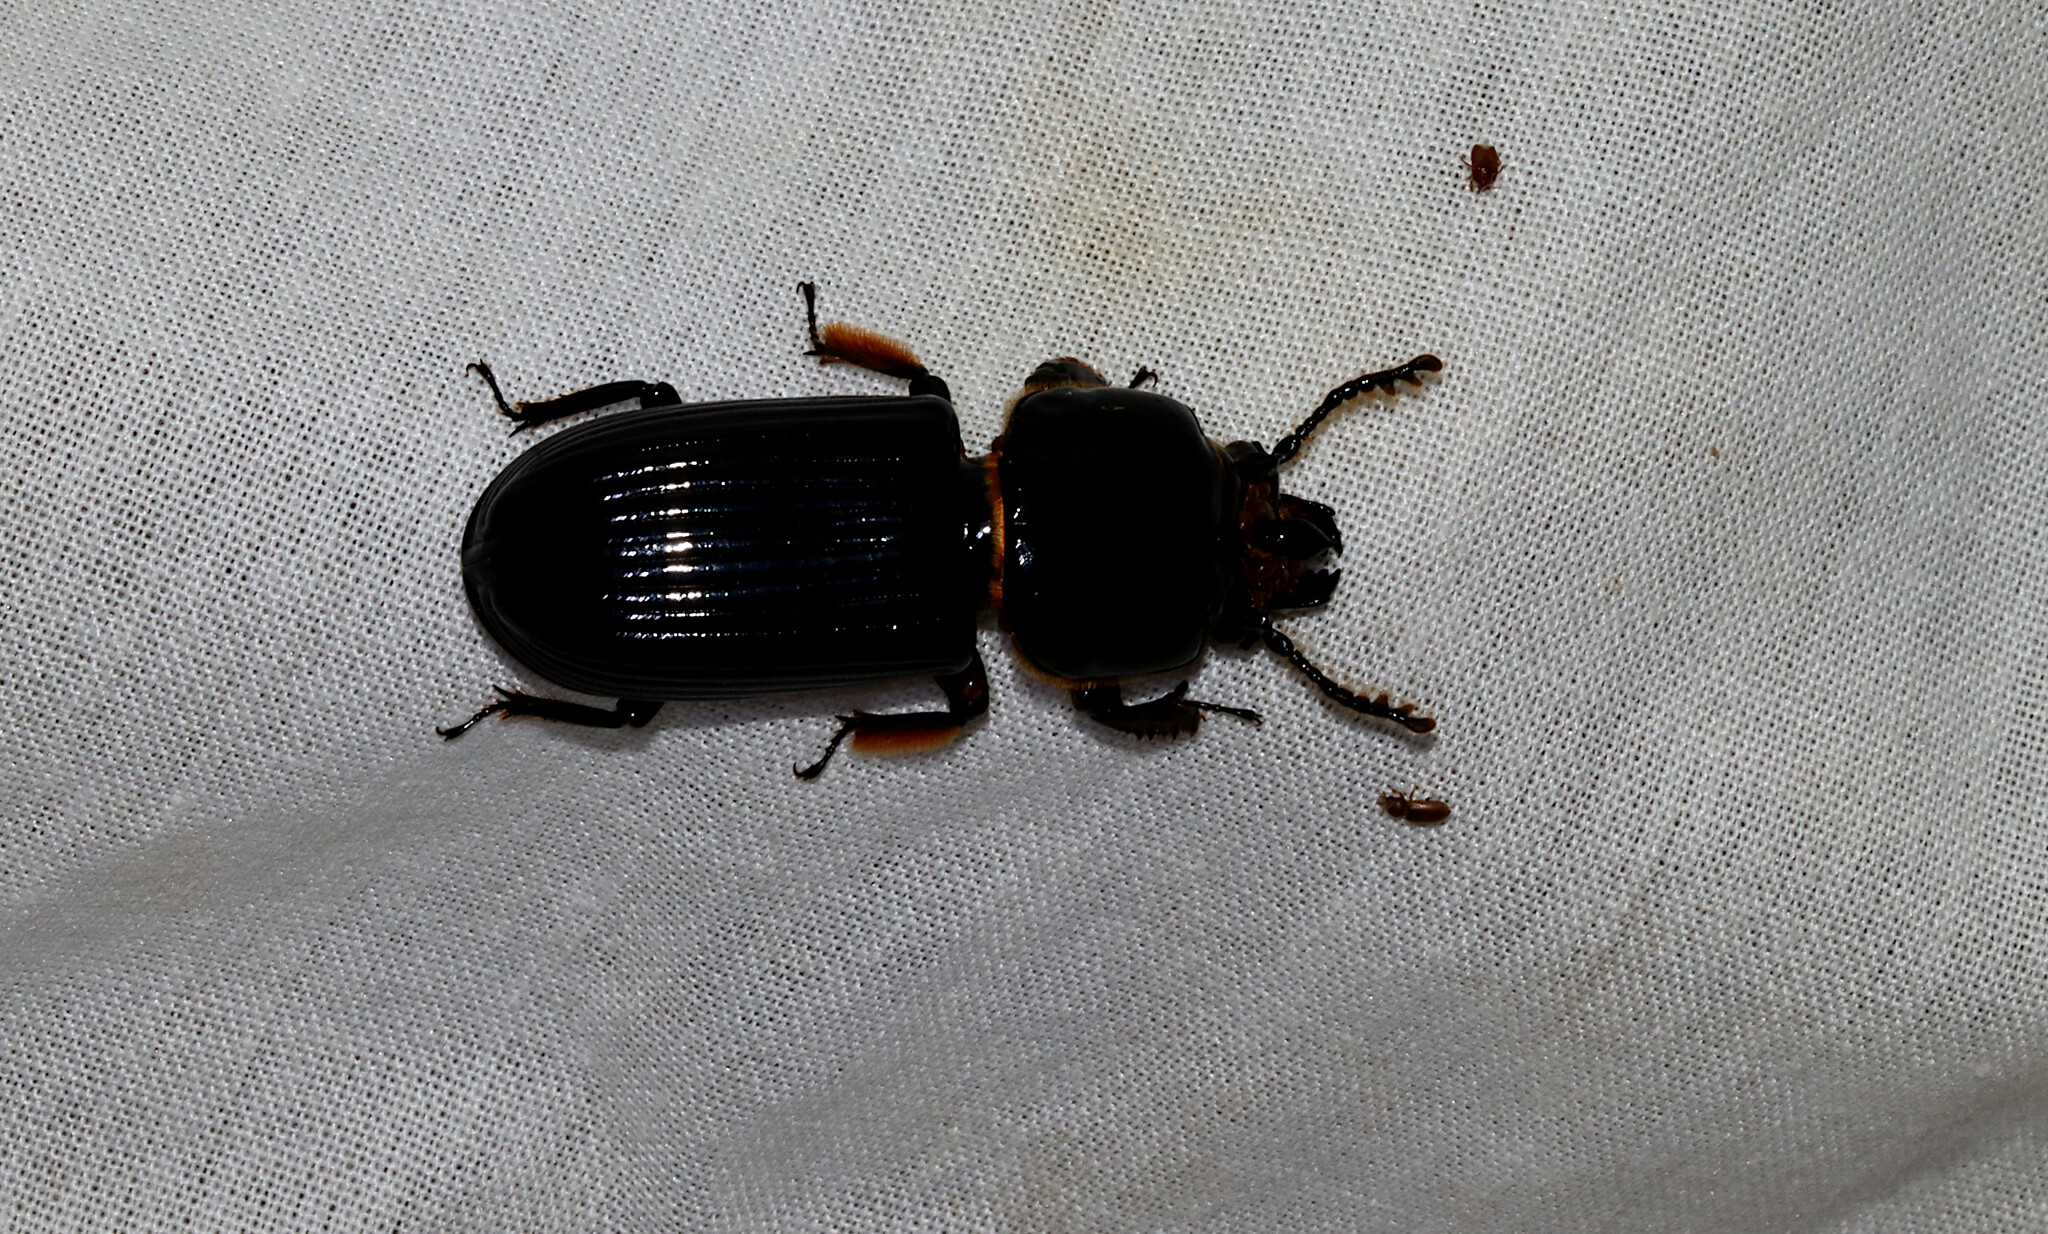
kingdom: Animalia
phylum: Arthropoda
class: Insecta
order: Coleoptera
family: Passalidae
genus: Odontotaenius
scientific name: Odontotaenius disjunctus
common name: Patent leather beetle
